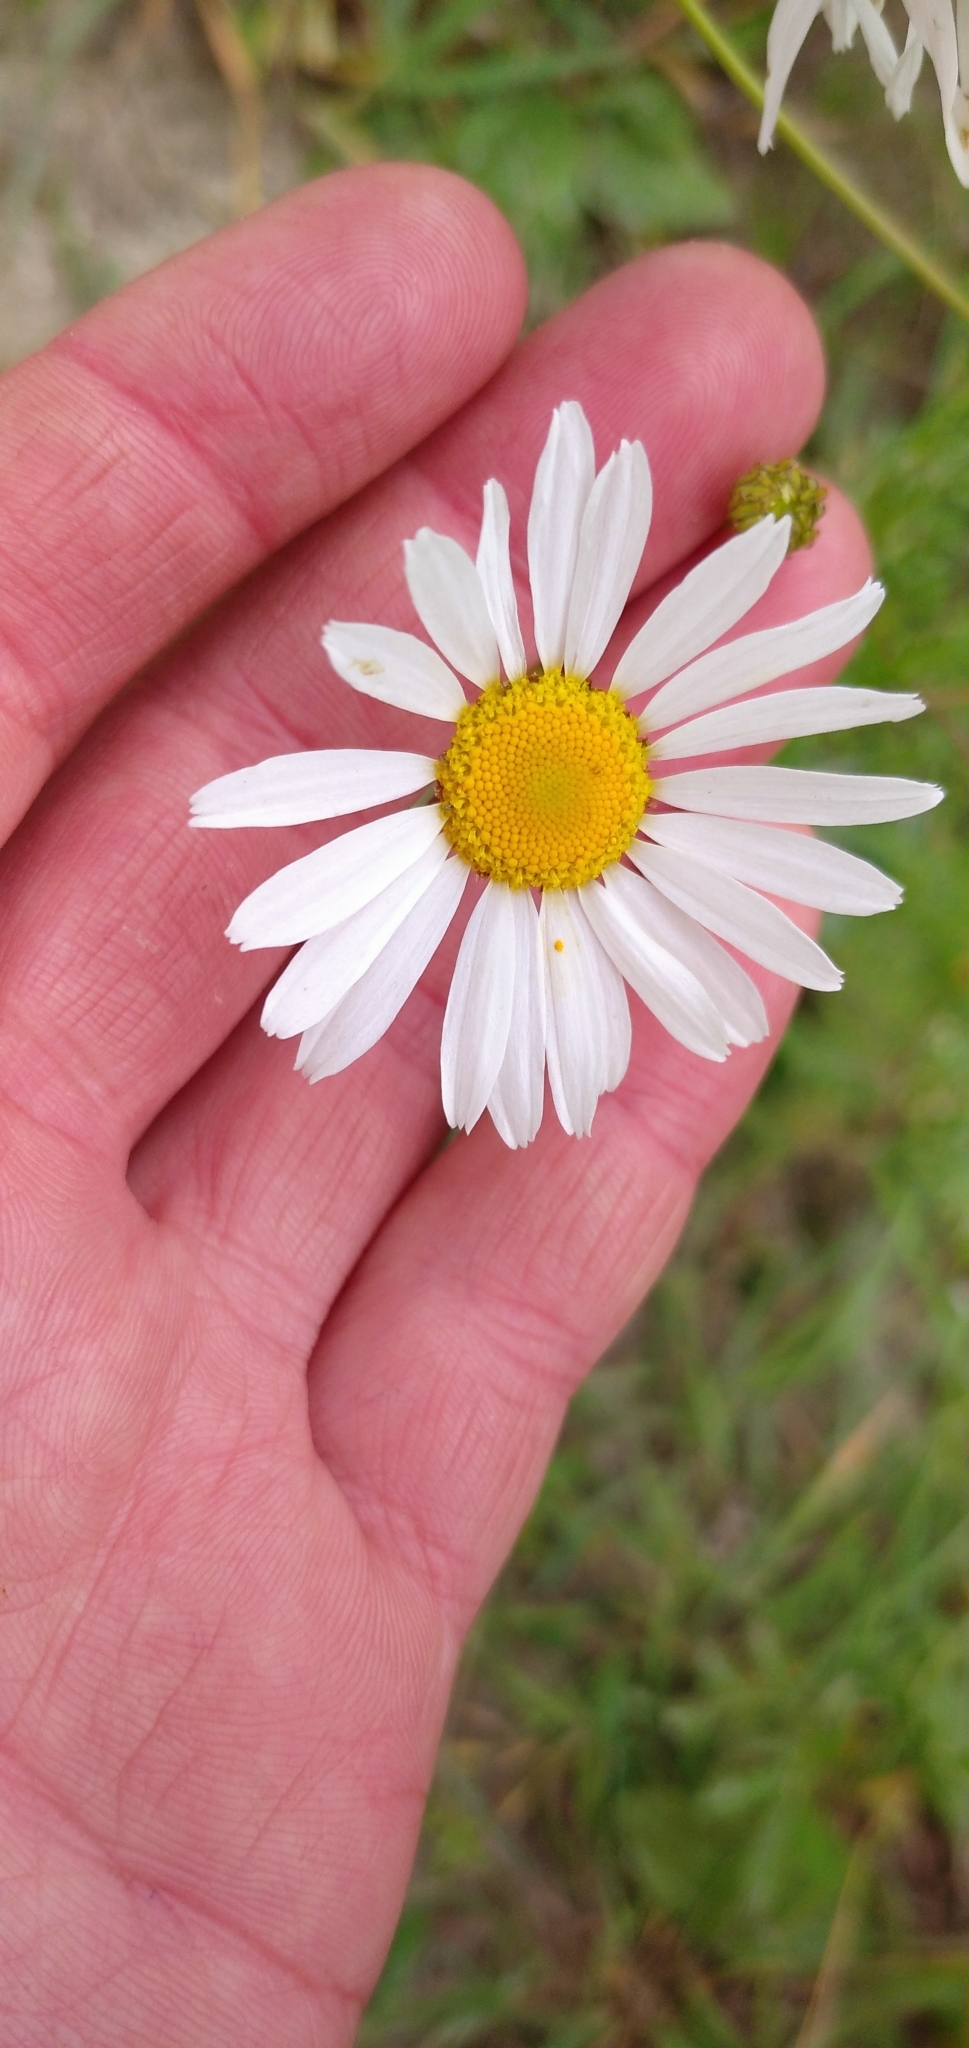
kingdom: Plantae
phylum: Tracheophyta
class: Magnoliopsida
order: Asterales
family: Asteraceae
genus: Tripleurospermum
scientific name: Tripleurospermum inodorum
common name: Scentless mayweed
